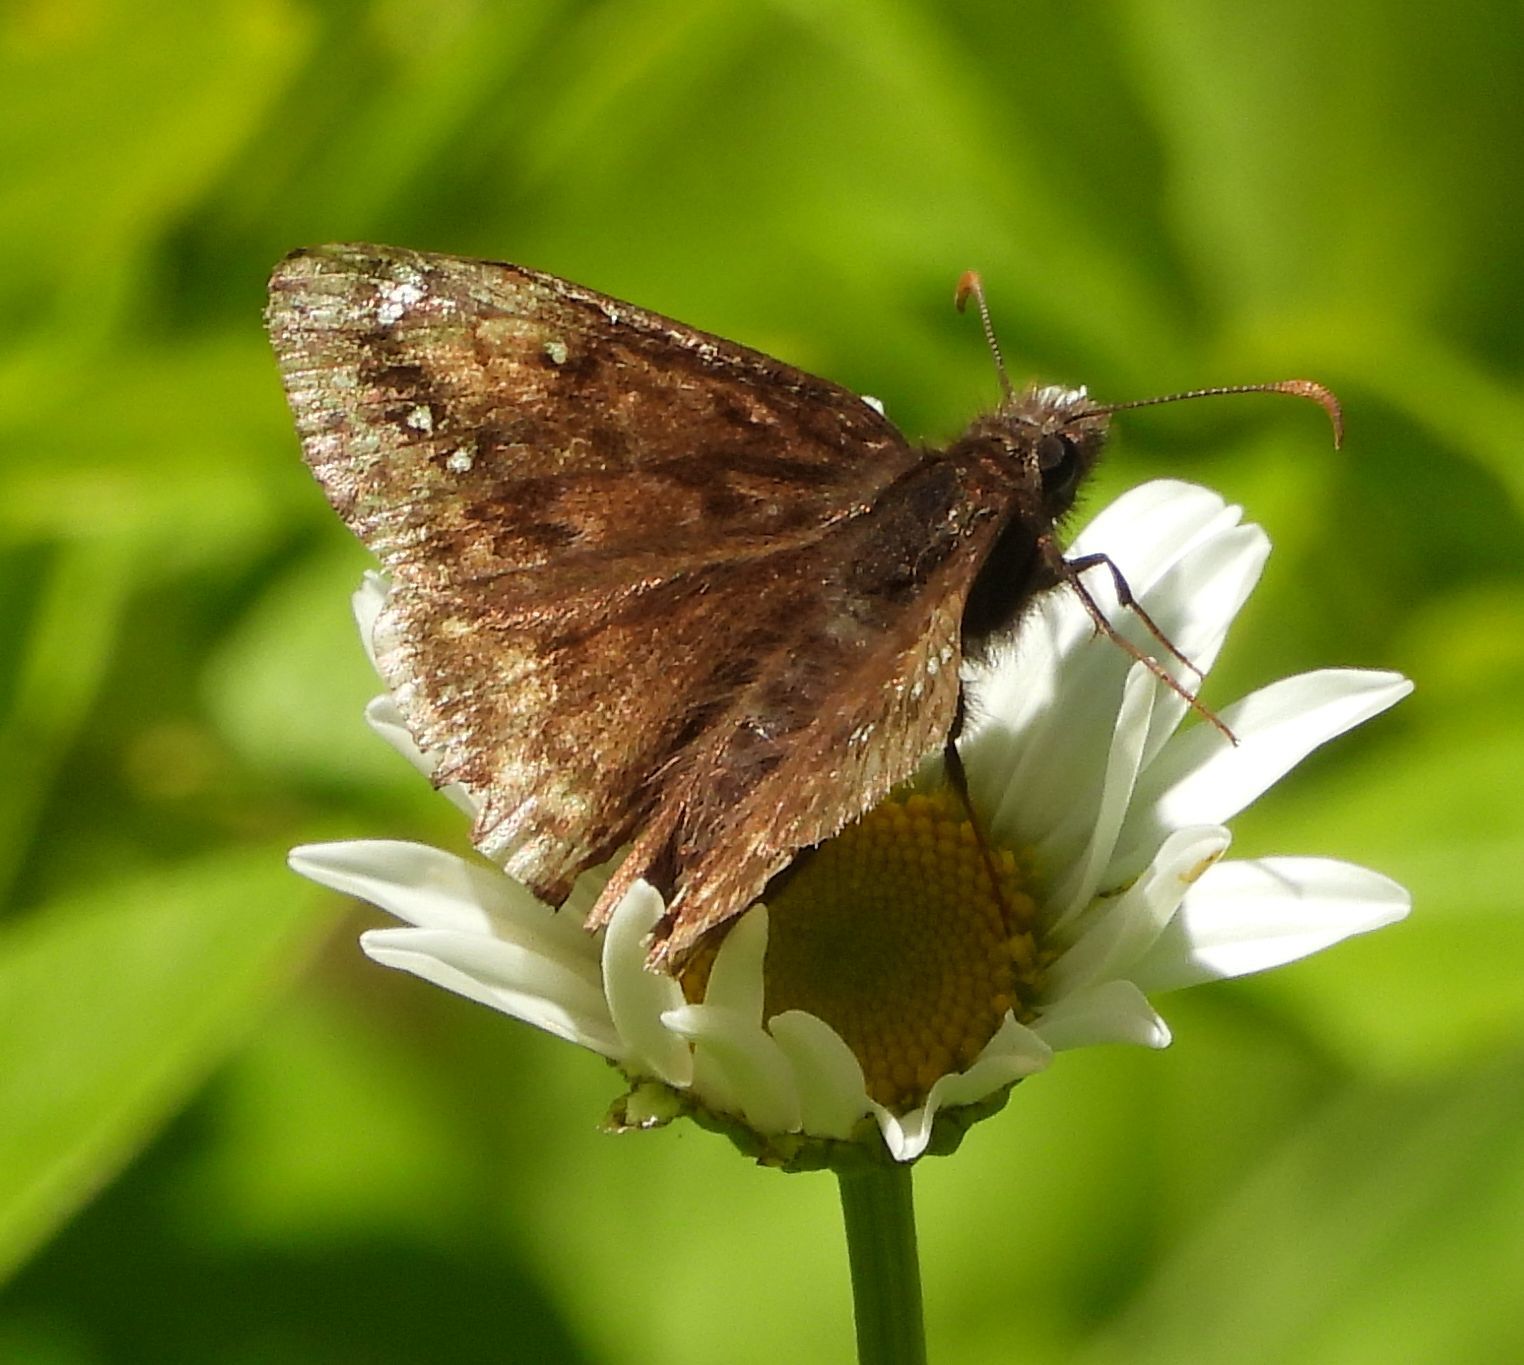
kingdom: Animalia
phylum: Arthropoda
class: Insecta
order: Lepidoptera
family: Hesperiidae
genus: Erynnis
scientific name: Erynnis juvenalis
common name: Juvenal's duskywing
